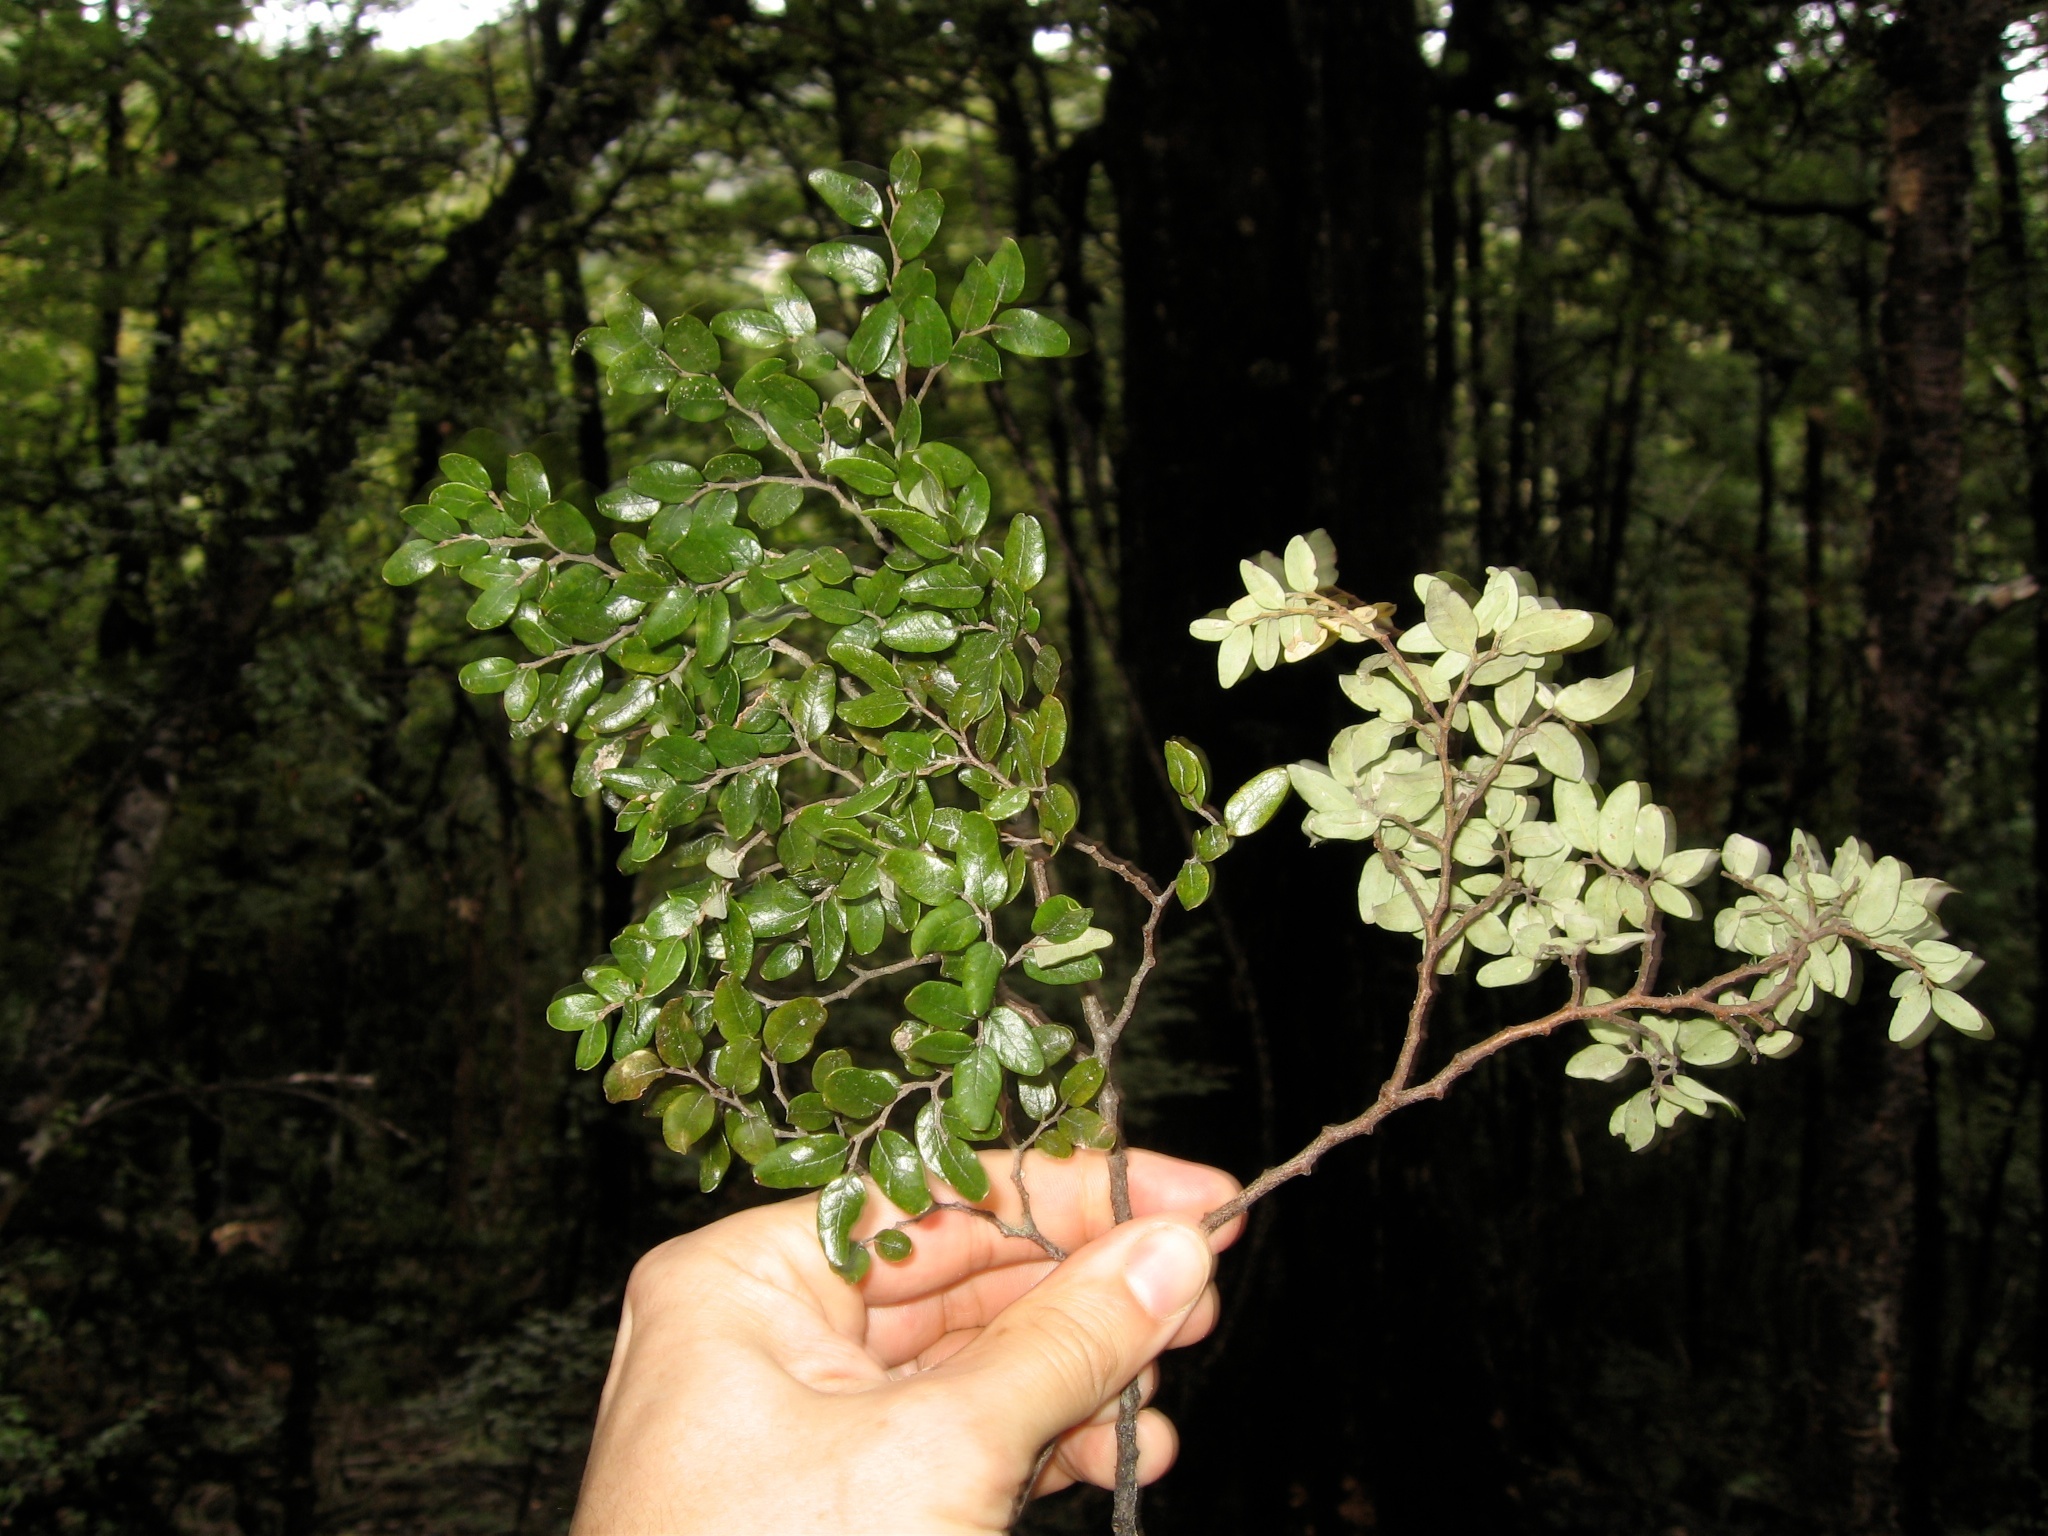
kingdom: Plantae
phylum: Tracheophyta
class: Magnoliopsida
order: Fagales
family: Nothofagaceae
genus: Nothofagus
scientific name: Nothofagus solandri
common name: Black beech
